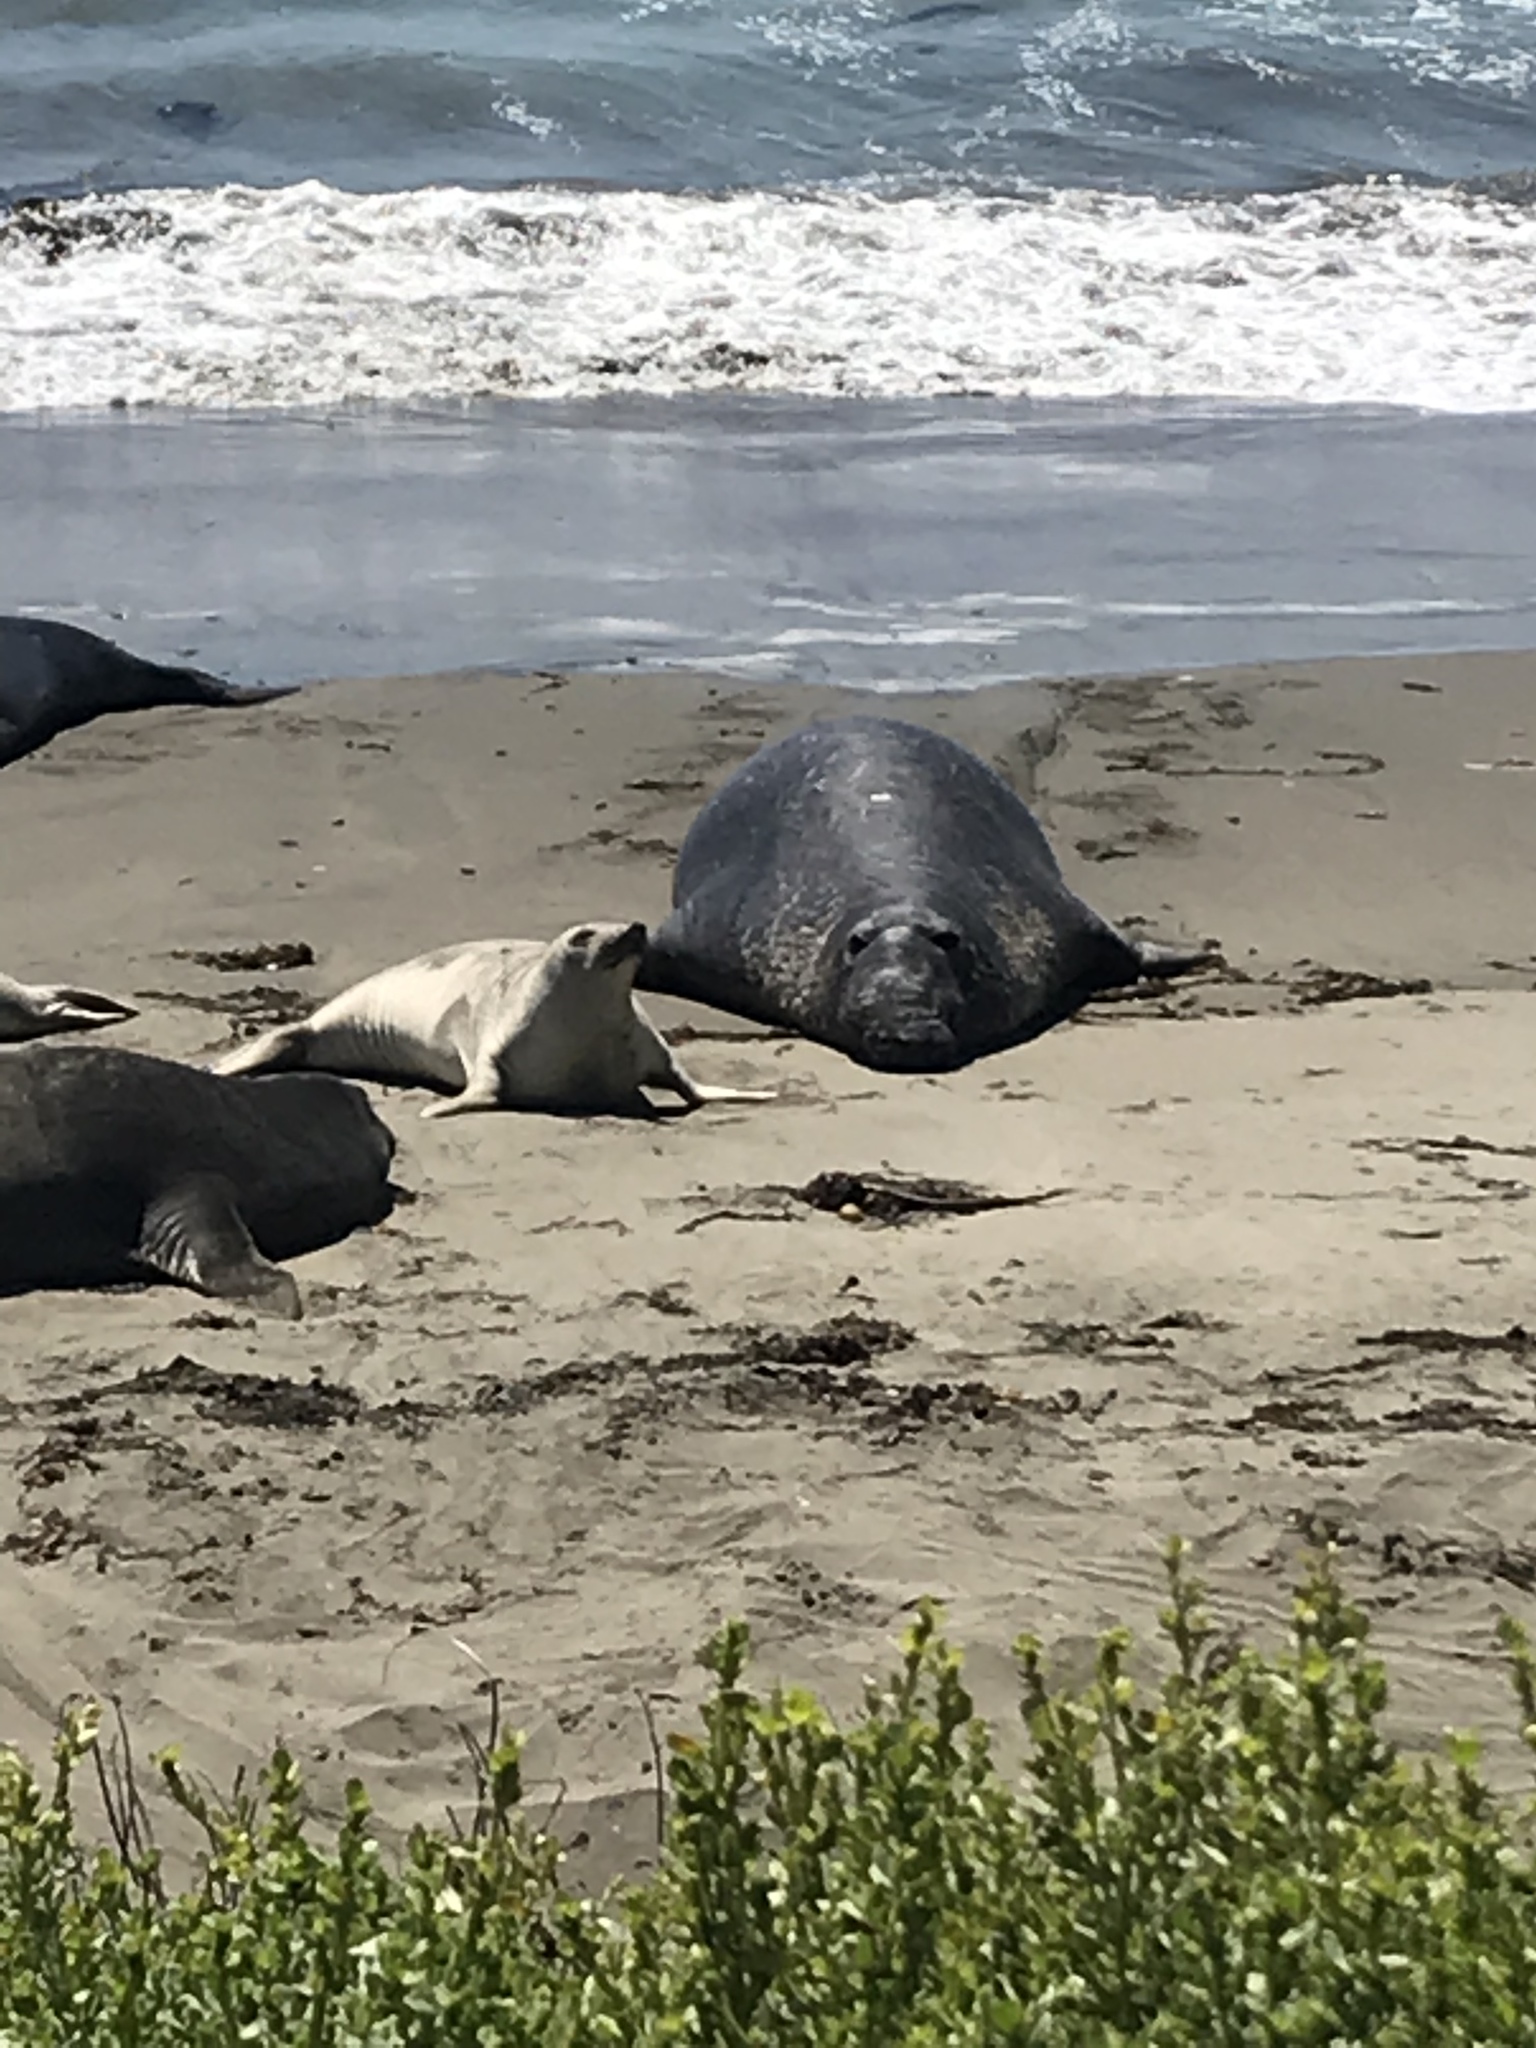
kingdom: Animalia
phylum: Chordata
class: Mammalia
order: Carnivora
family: Phocidae
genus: Mirounga
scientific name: Mirounga angustirostris
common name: Northern elephant seal
